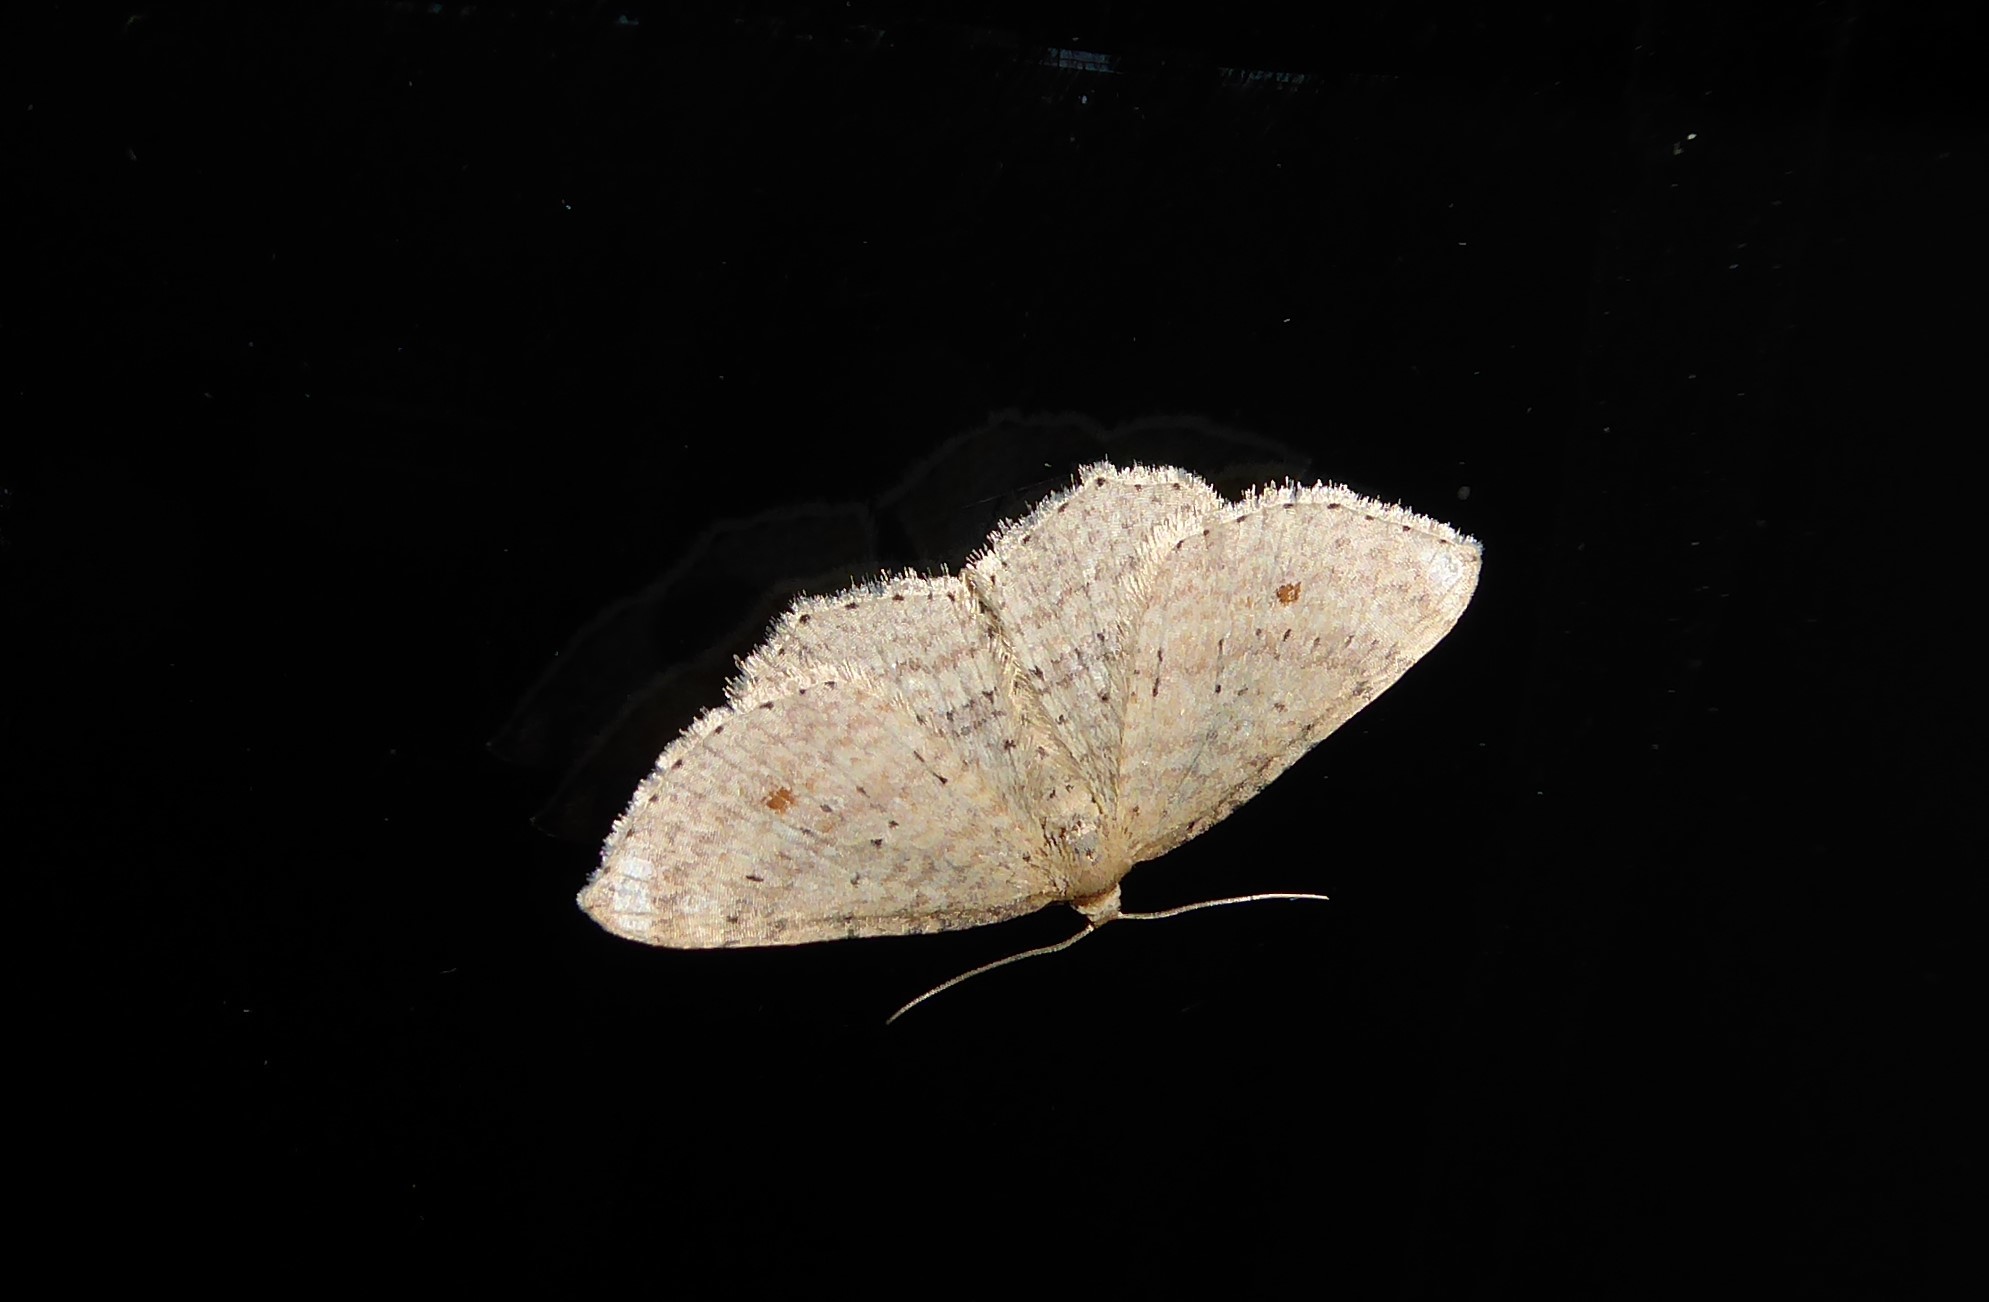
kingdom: Animalia
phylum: Arthropoda
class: Insecta
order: Lepidoptera
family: Geometridae
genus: Epicyme
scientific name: Epicyme rubropunctaria
